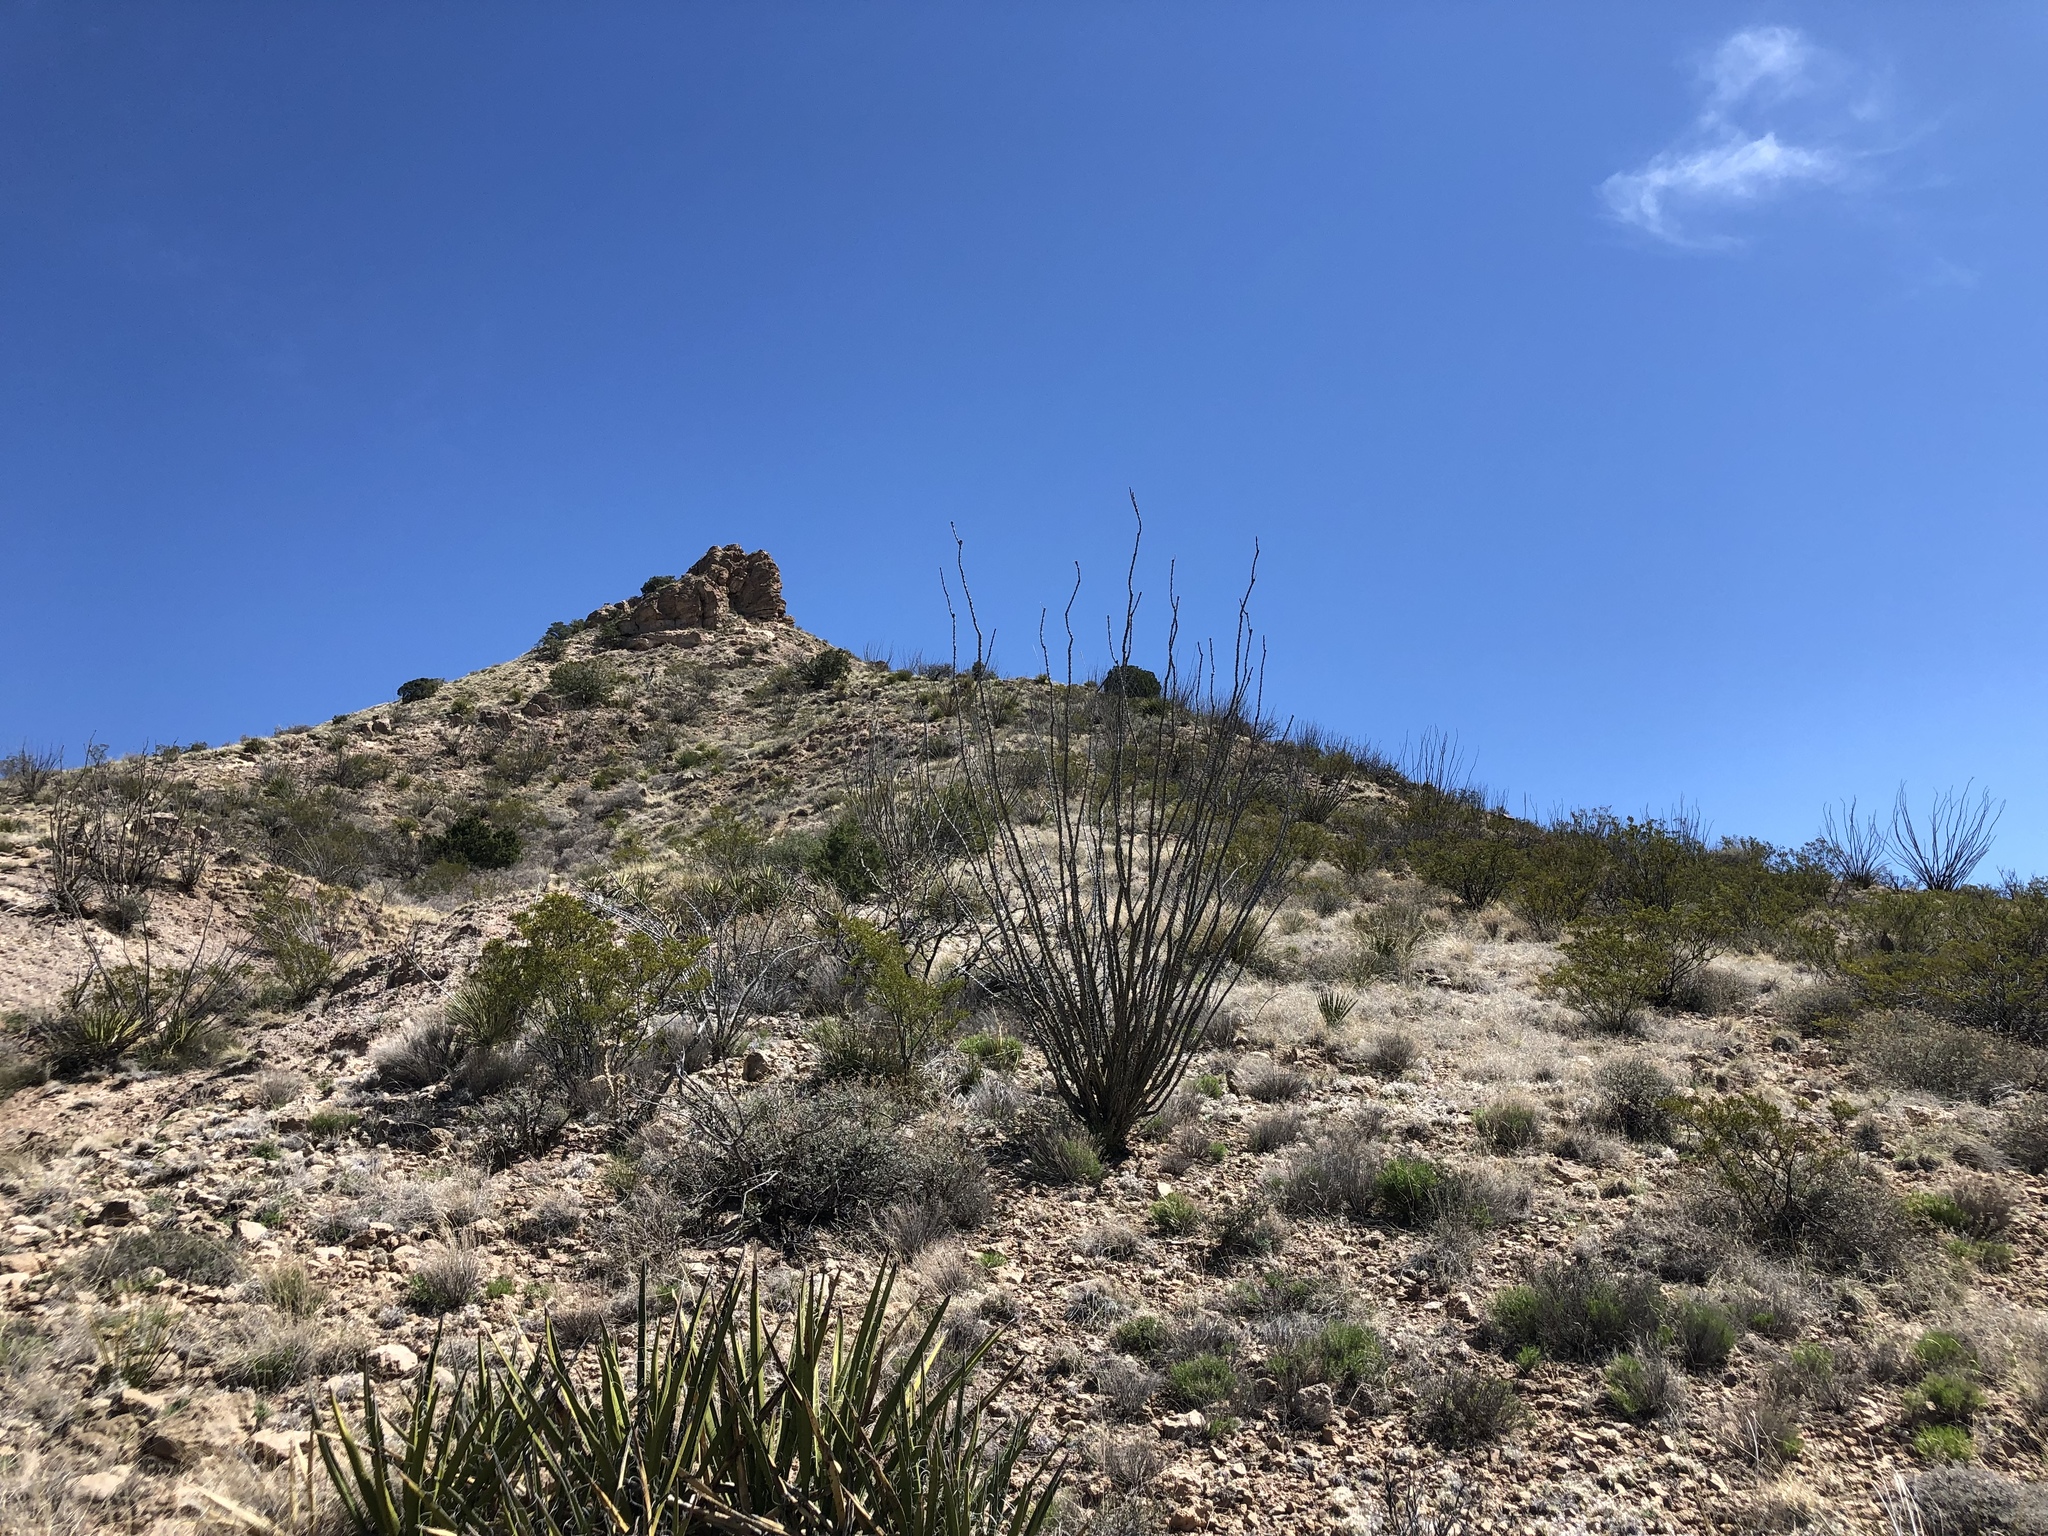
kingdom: Plantae
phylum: Tracheophyta
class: Magnoliopsida
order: Ericales
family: Fouquieriaceae
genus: Fouquieria
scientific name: Fouquieria splendens
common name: Vine-cactus
